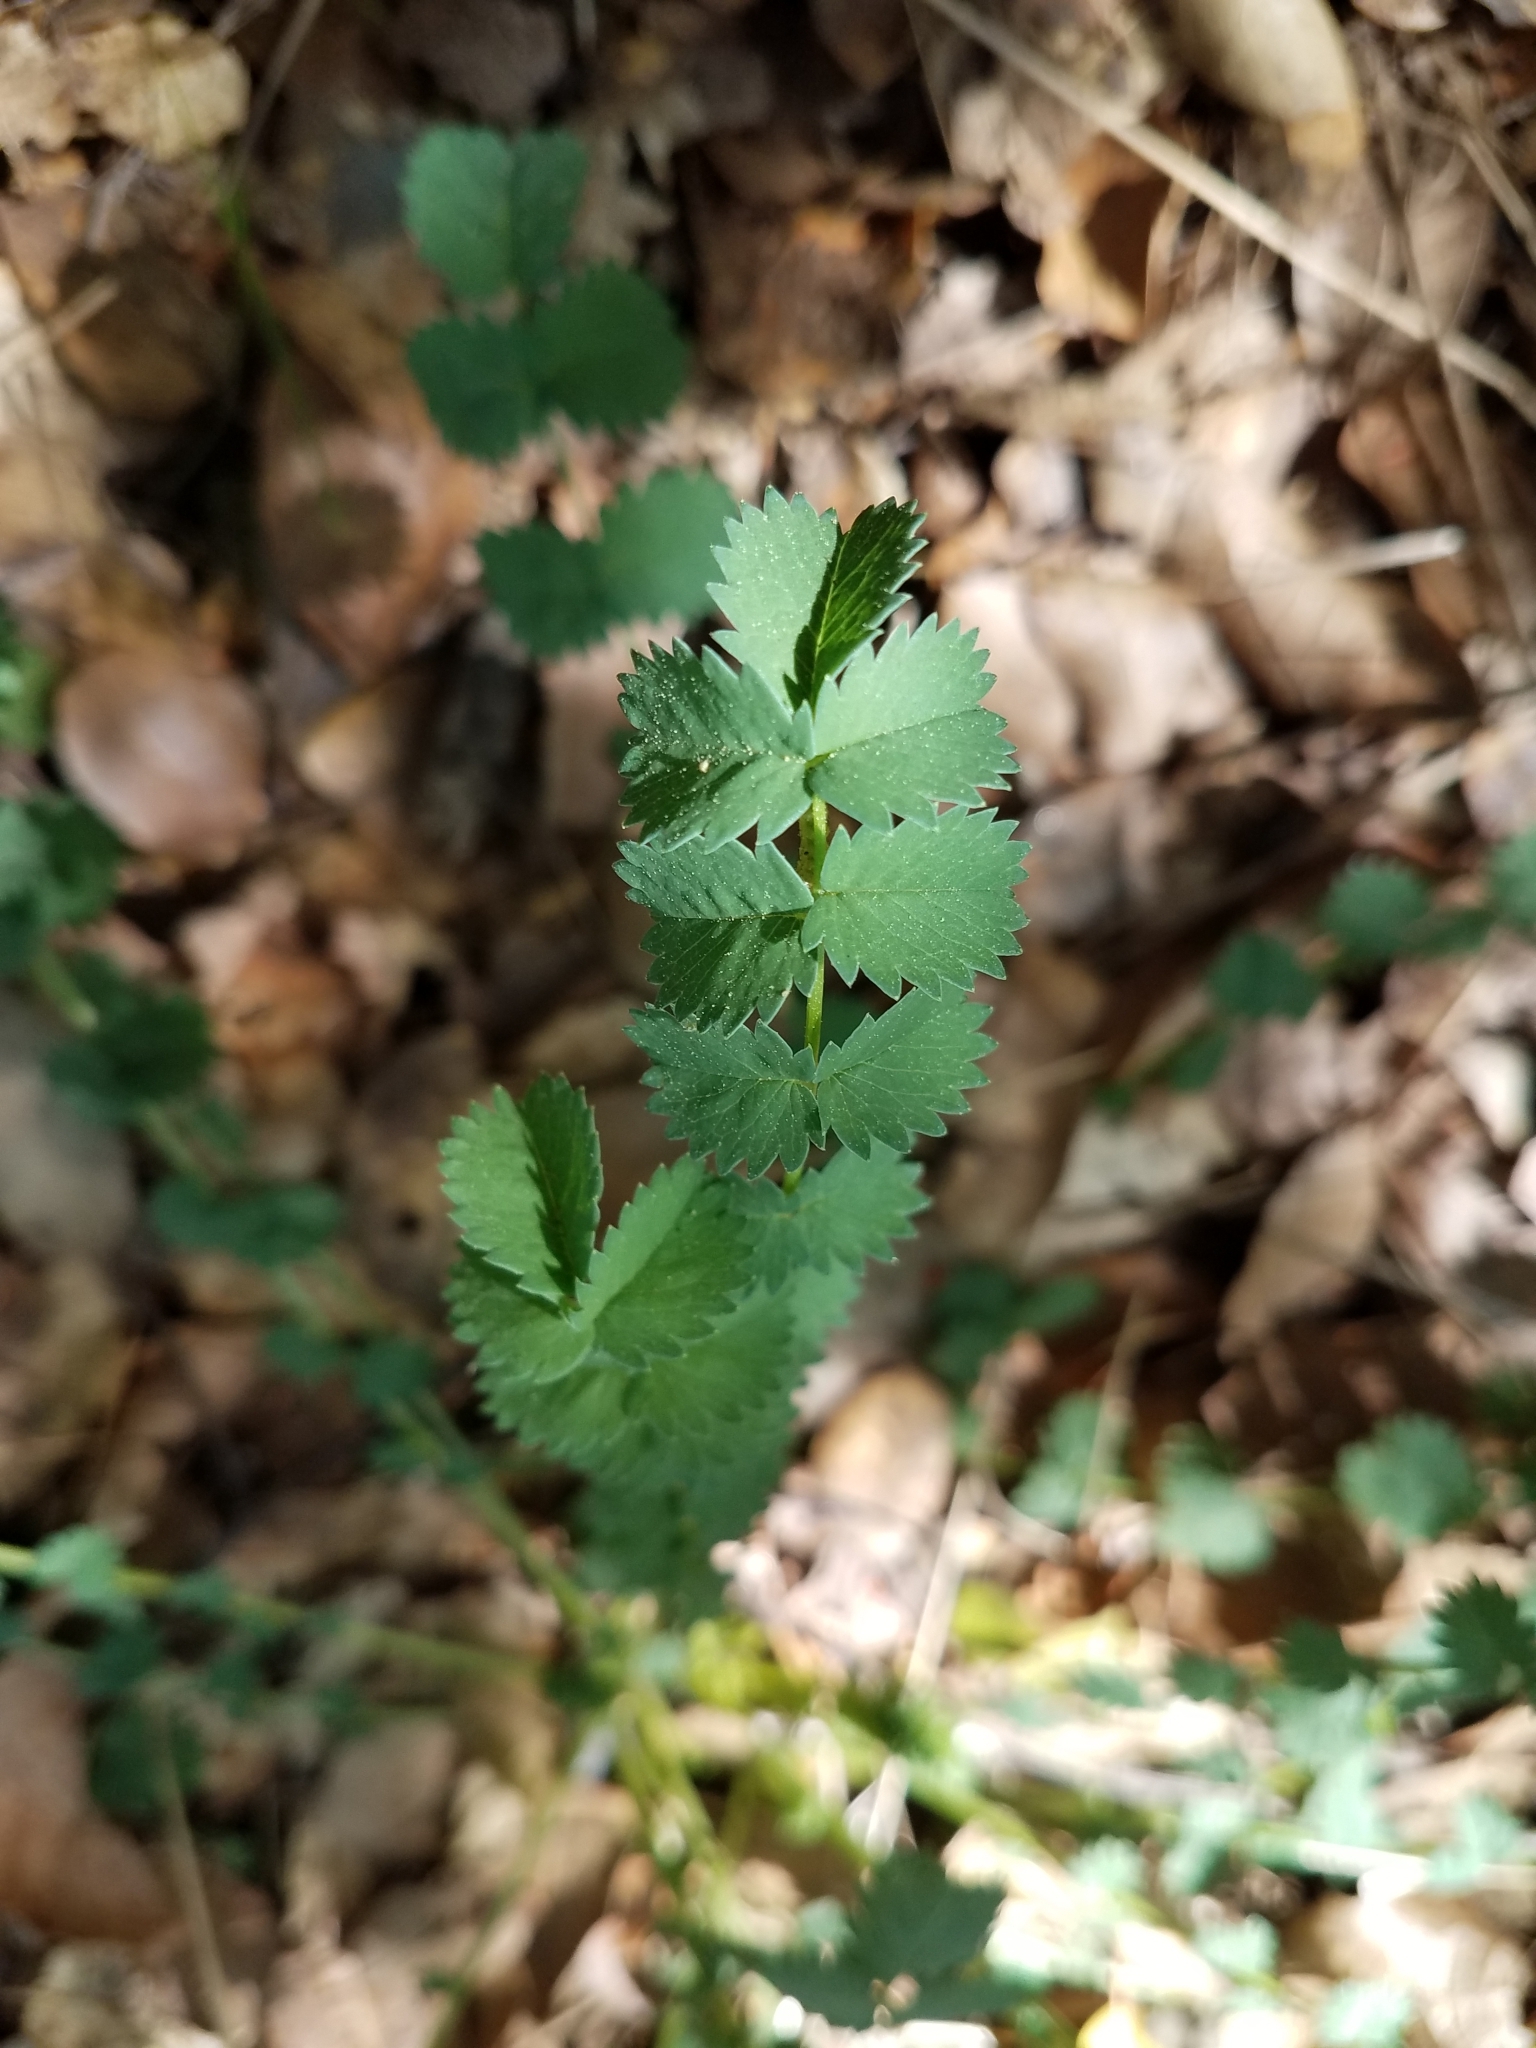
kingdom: Plantae
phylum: Tracheophyta
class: Magnoliopsida
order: Rosales
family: Rosaceae
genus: Poterium
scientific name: Poterium sanguisorba
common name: Salad burnet
